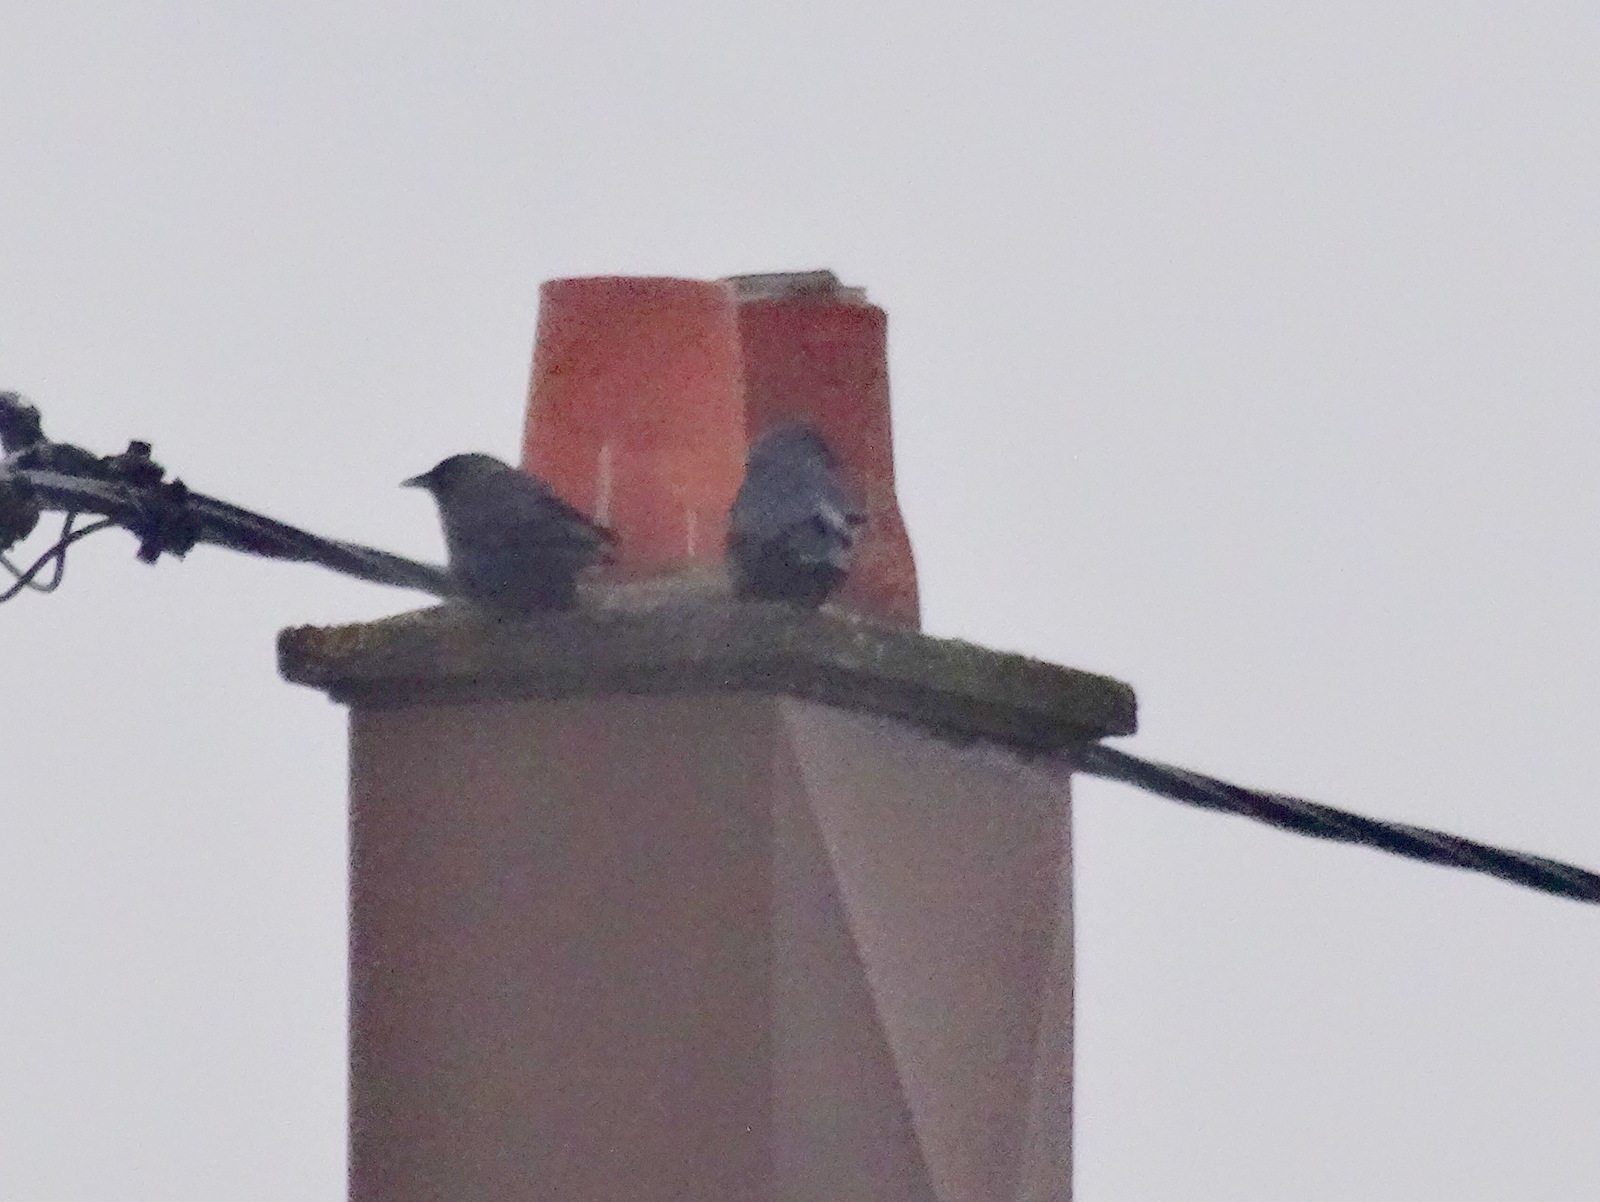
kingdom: Animalia
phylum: Chordata
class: Aves
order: Passeriformes
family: Corvidae
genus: Coloeus
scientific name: Coloeus monedula
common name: Western jackdaw
